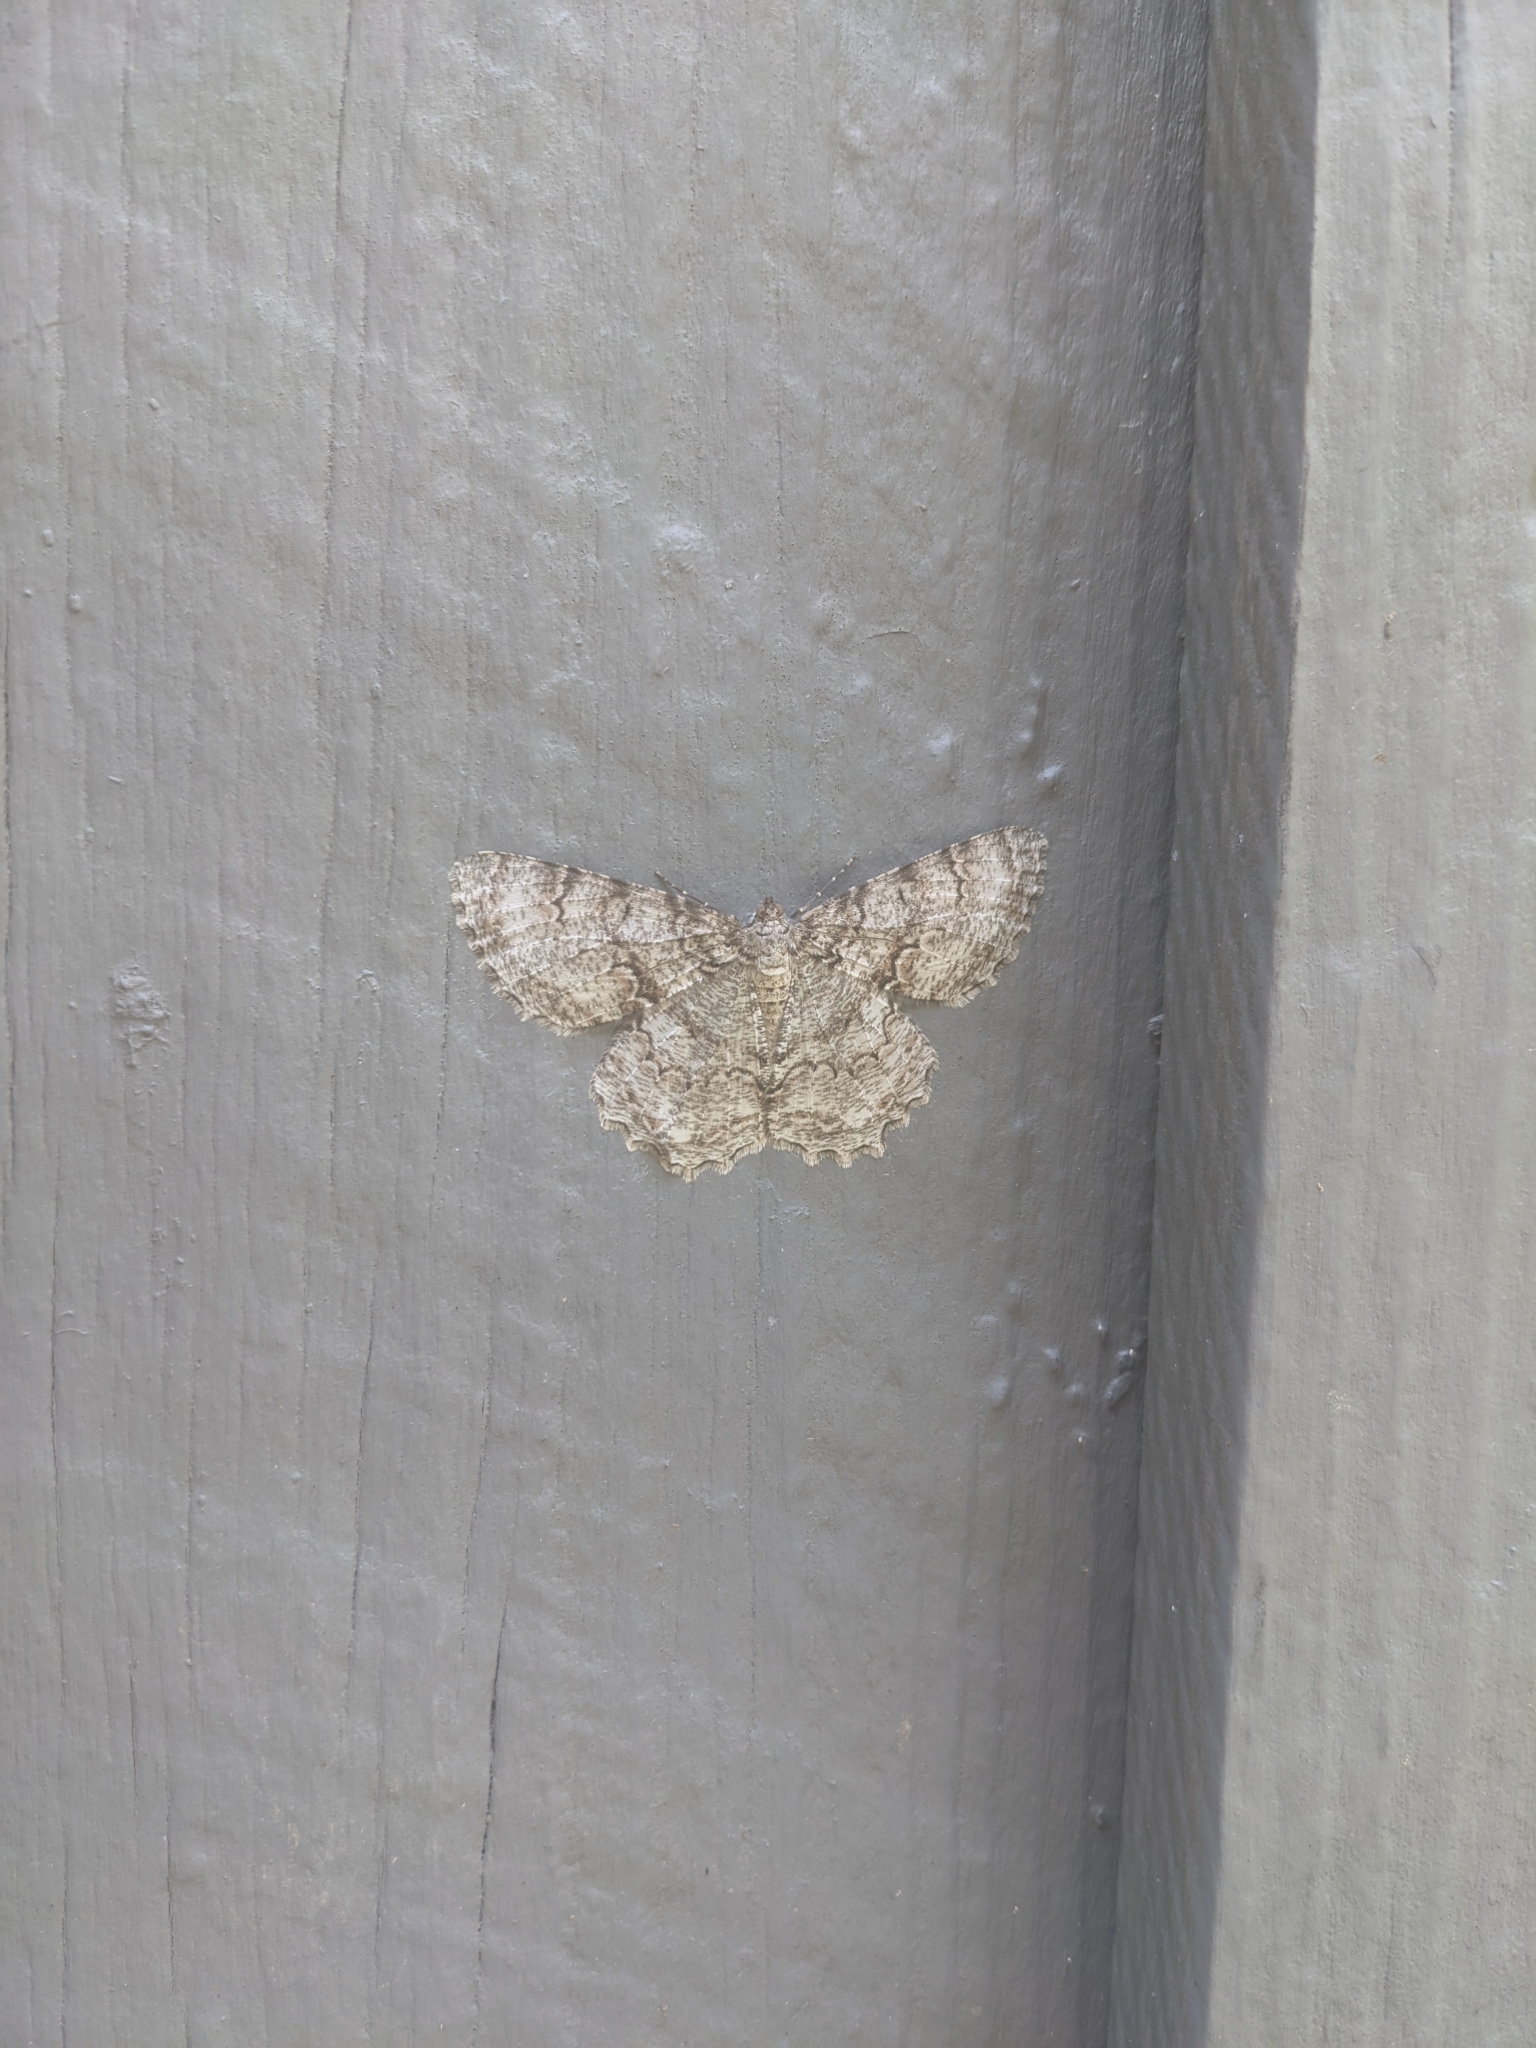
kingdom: Animalia
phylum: Arthropoda
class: Insecta
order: Lepidoptera
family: Geometridae
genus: Epimecis
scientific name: Epimecis hortaria
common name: Tulip-tree beauty
